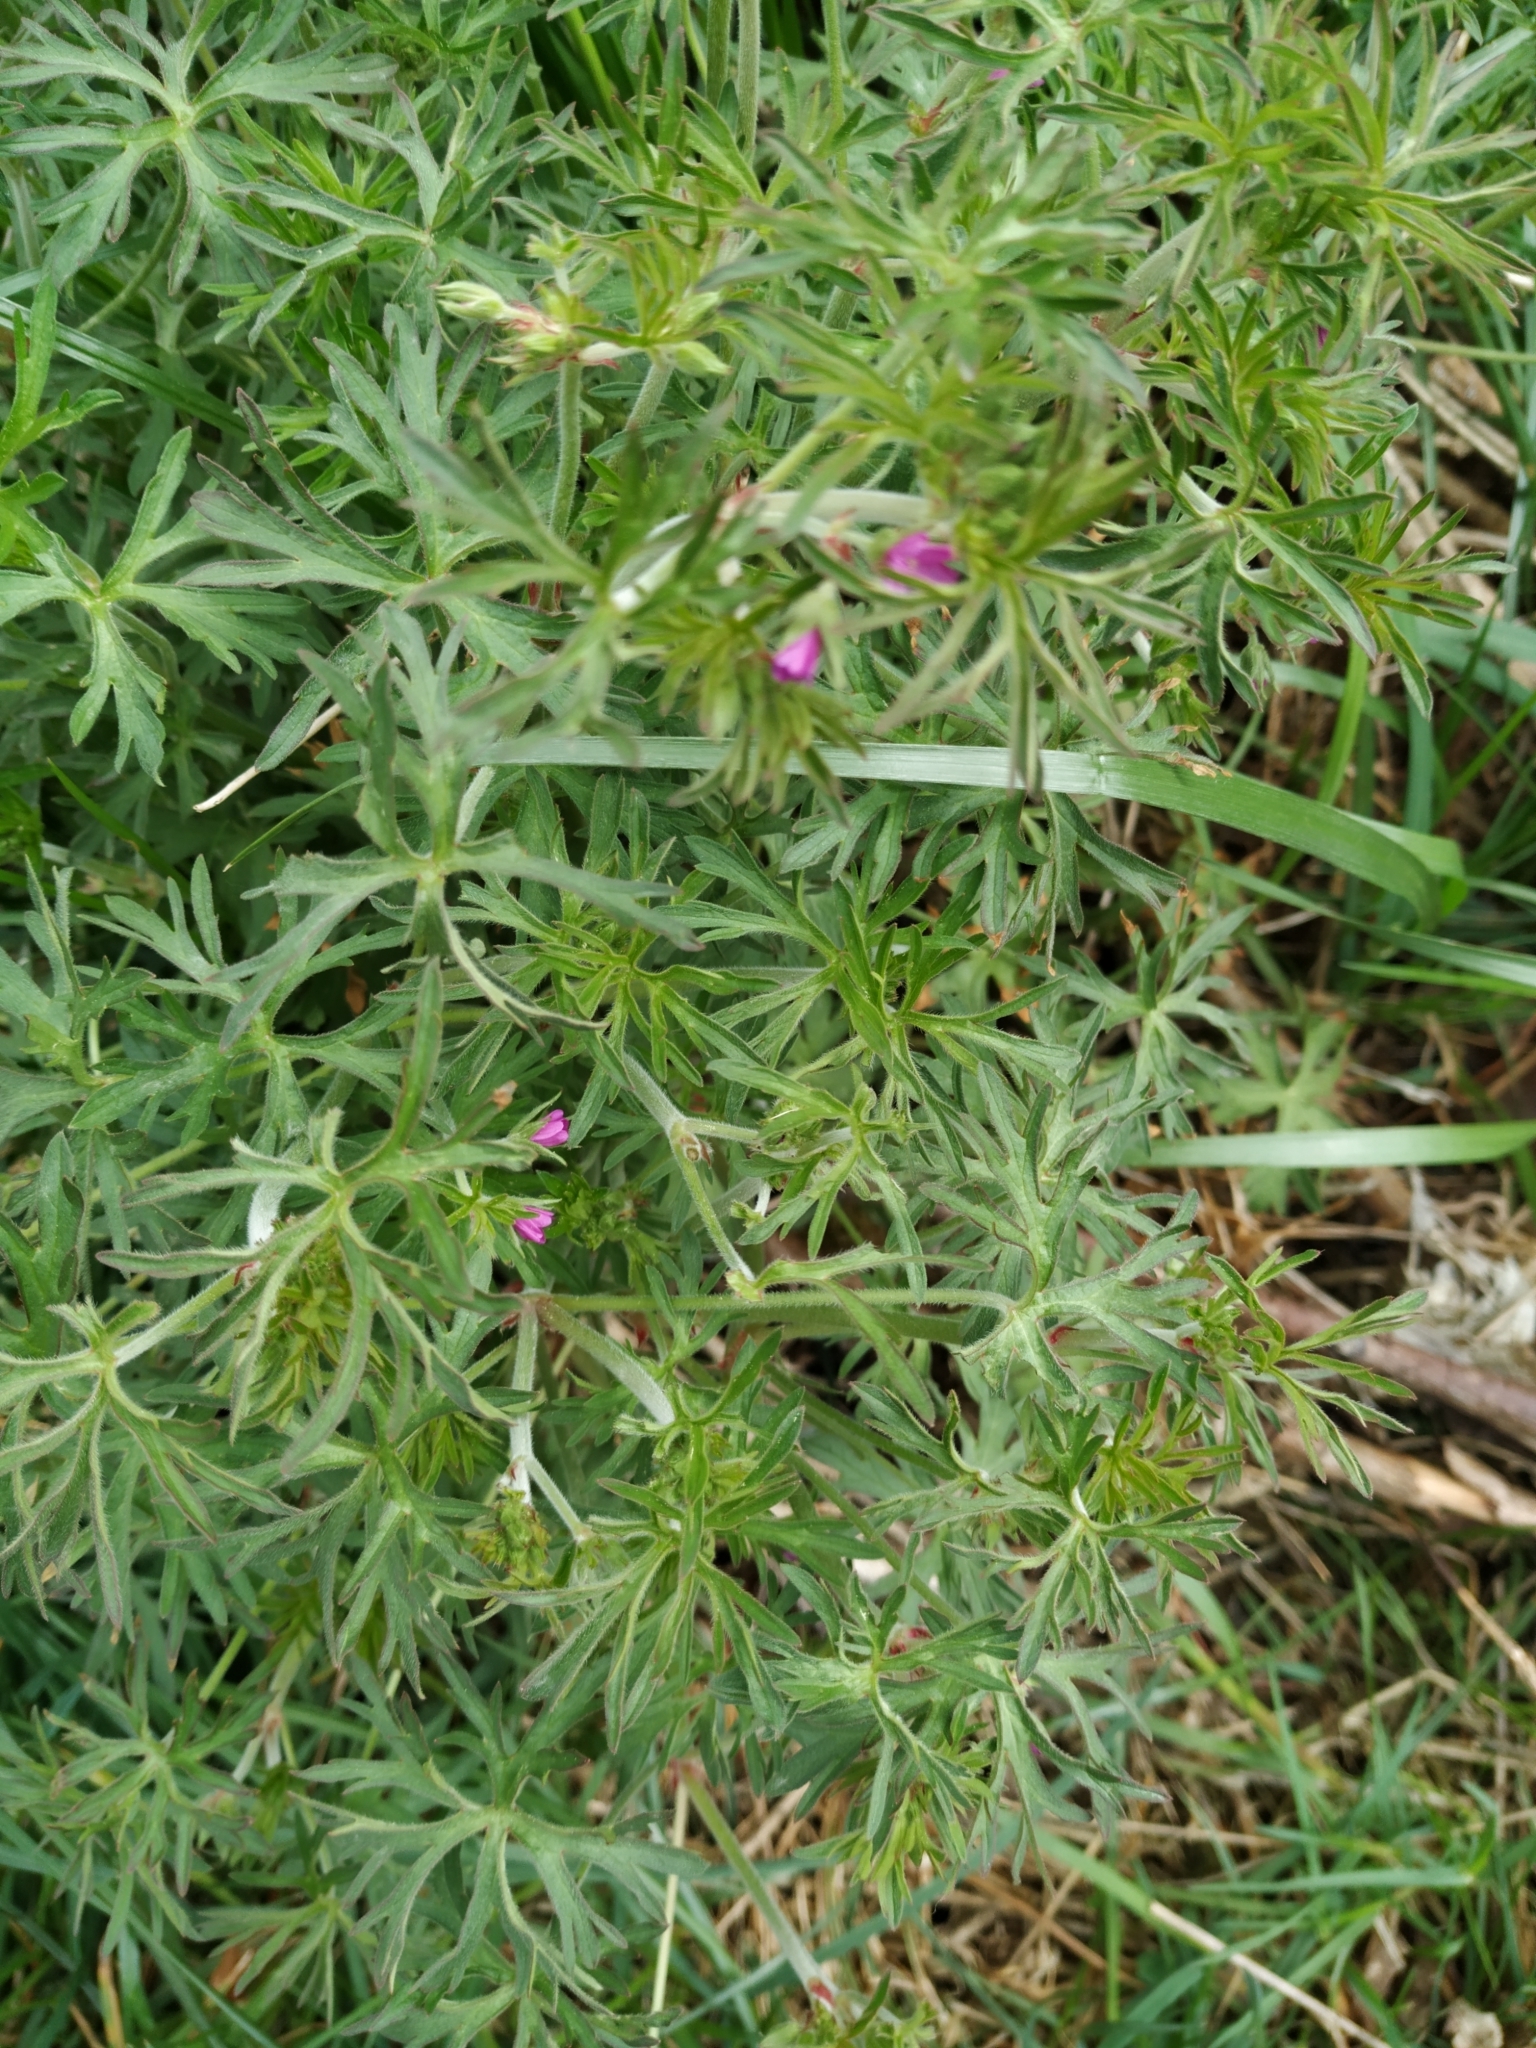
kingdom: Plantae
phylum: Tracheophyta
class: Magnoliopsida
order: Geraniales
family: Geraniaceae
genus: Geranium
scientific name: Geranium dissectum
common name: Cut-leaved crane's-bill
